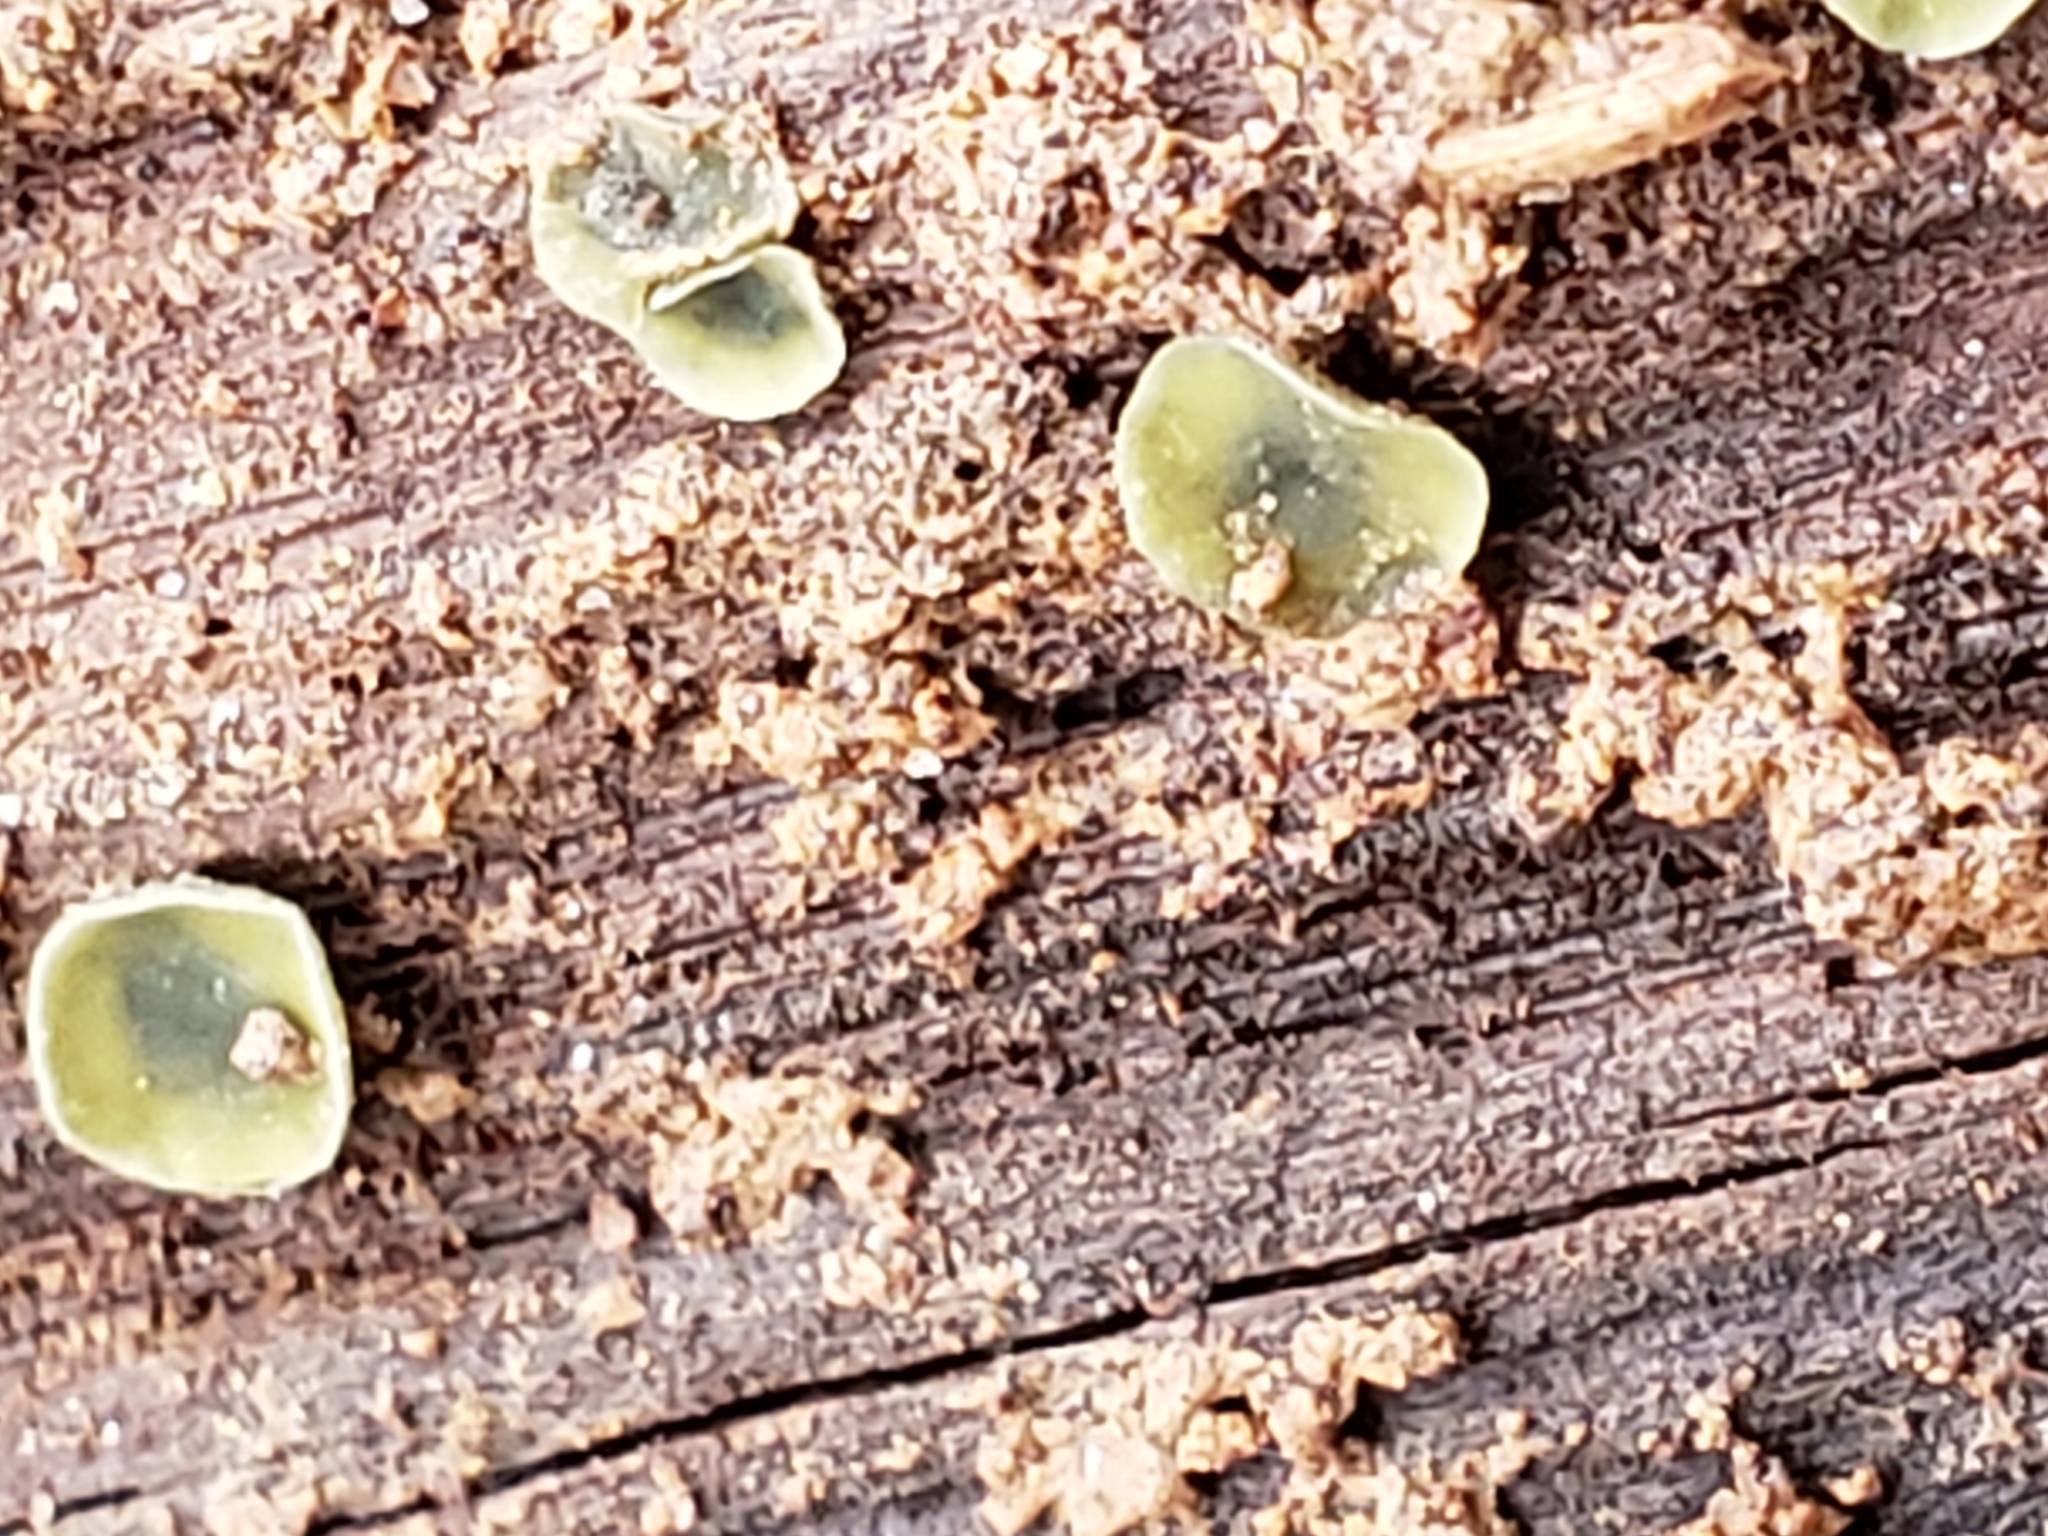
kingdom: Fungi
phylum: Ascomycota
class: Leotiomycetes
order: Helotiales
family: Chlorospleniaceae
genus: Chlorosplenium
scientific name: Chlorosplenium chlora
